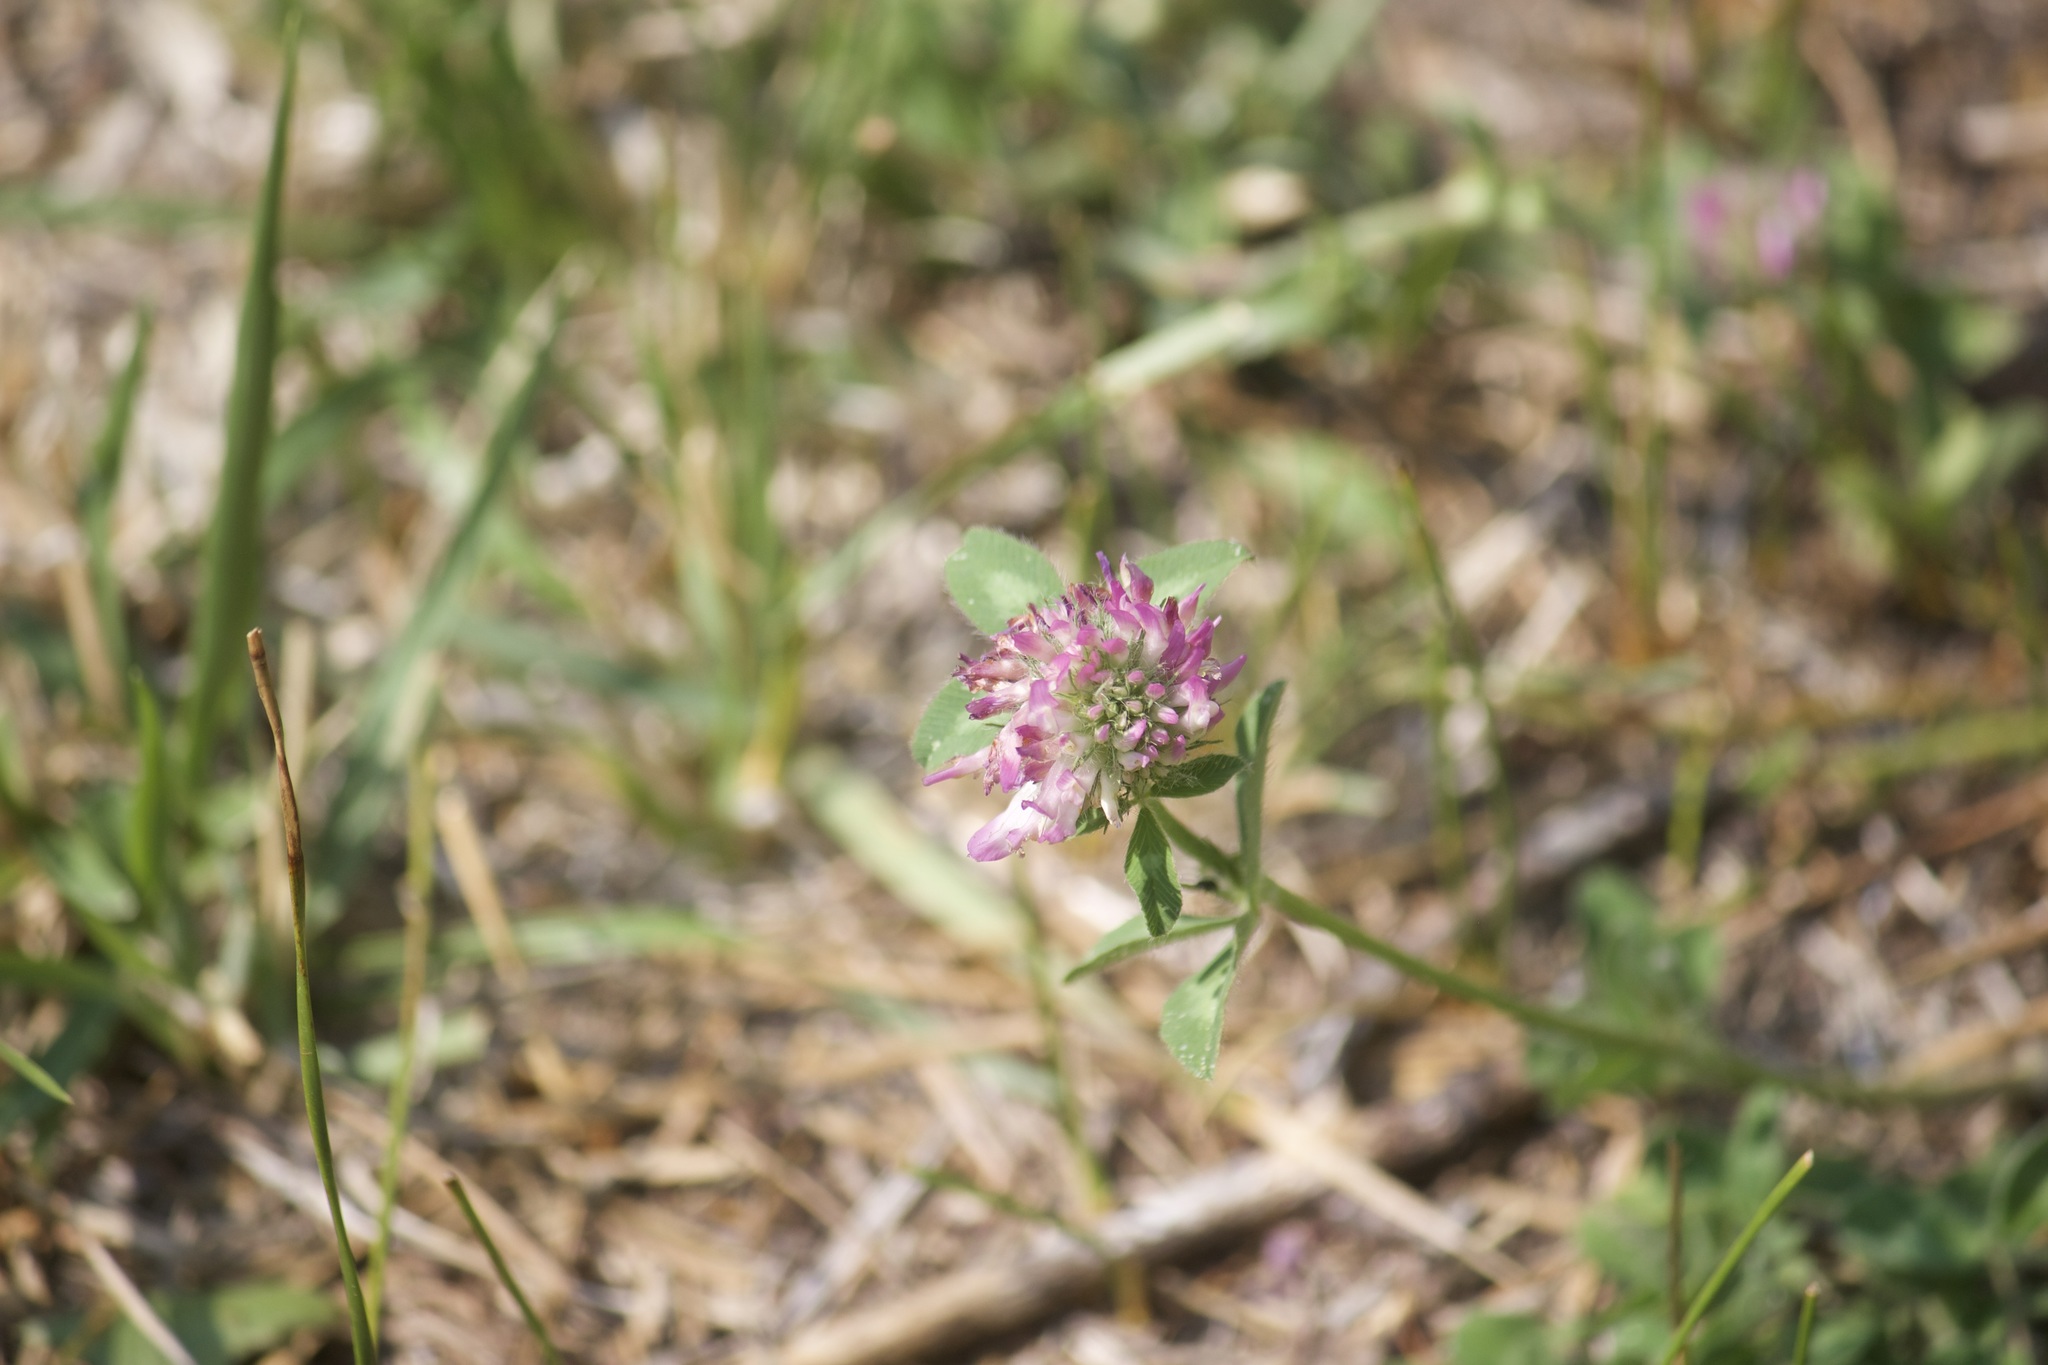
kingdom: Plantae
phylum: Tracheophyta
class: Magnoliopsida
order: Fabales
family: Fabaceae
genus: Trifolium
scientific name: Trifolium pratense
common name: Red clover
